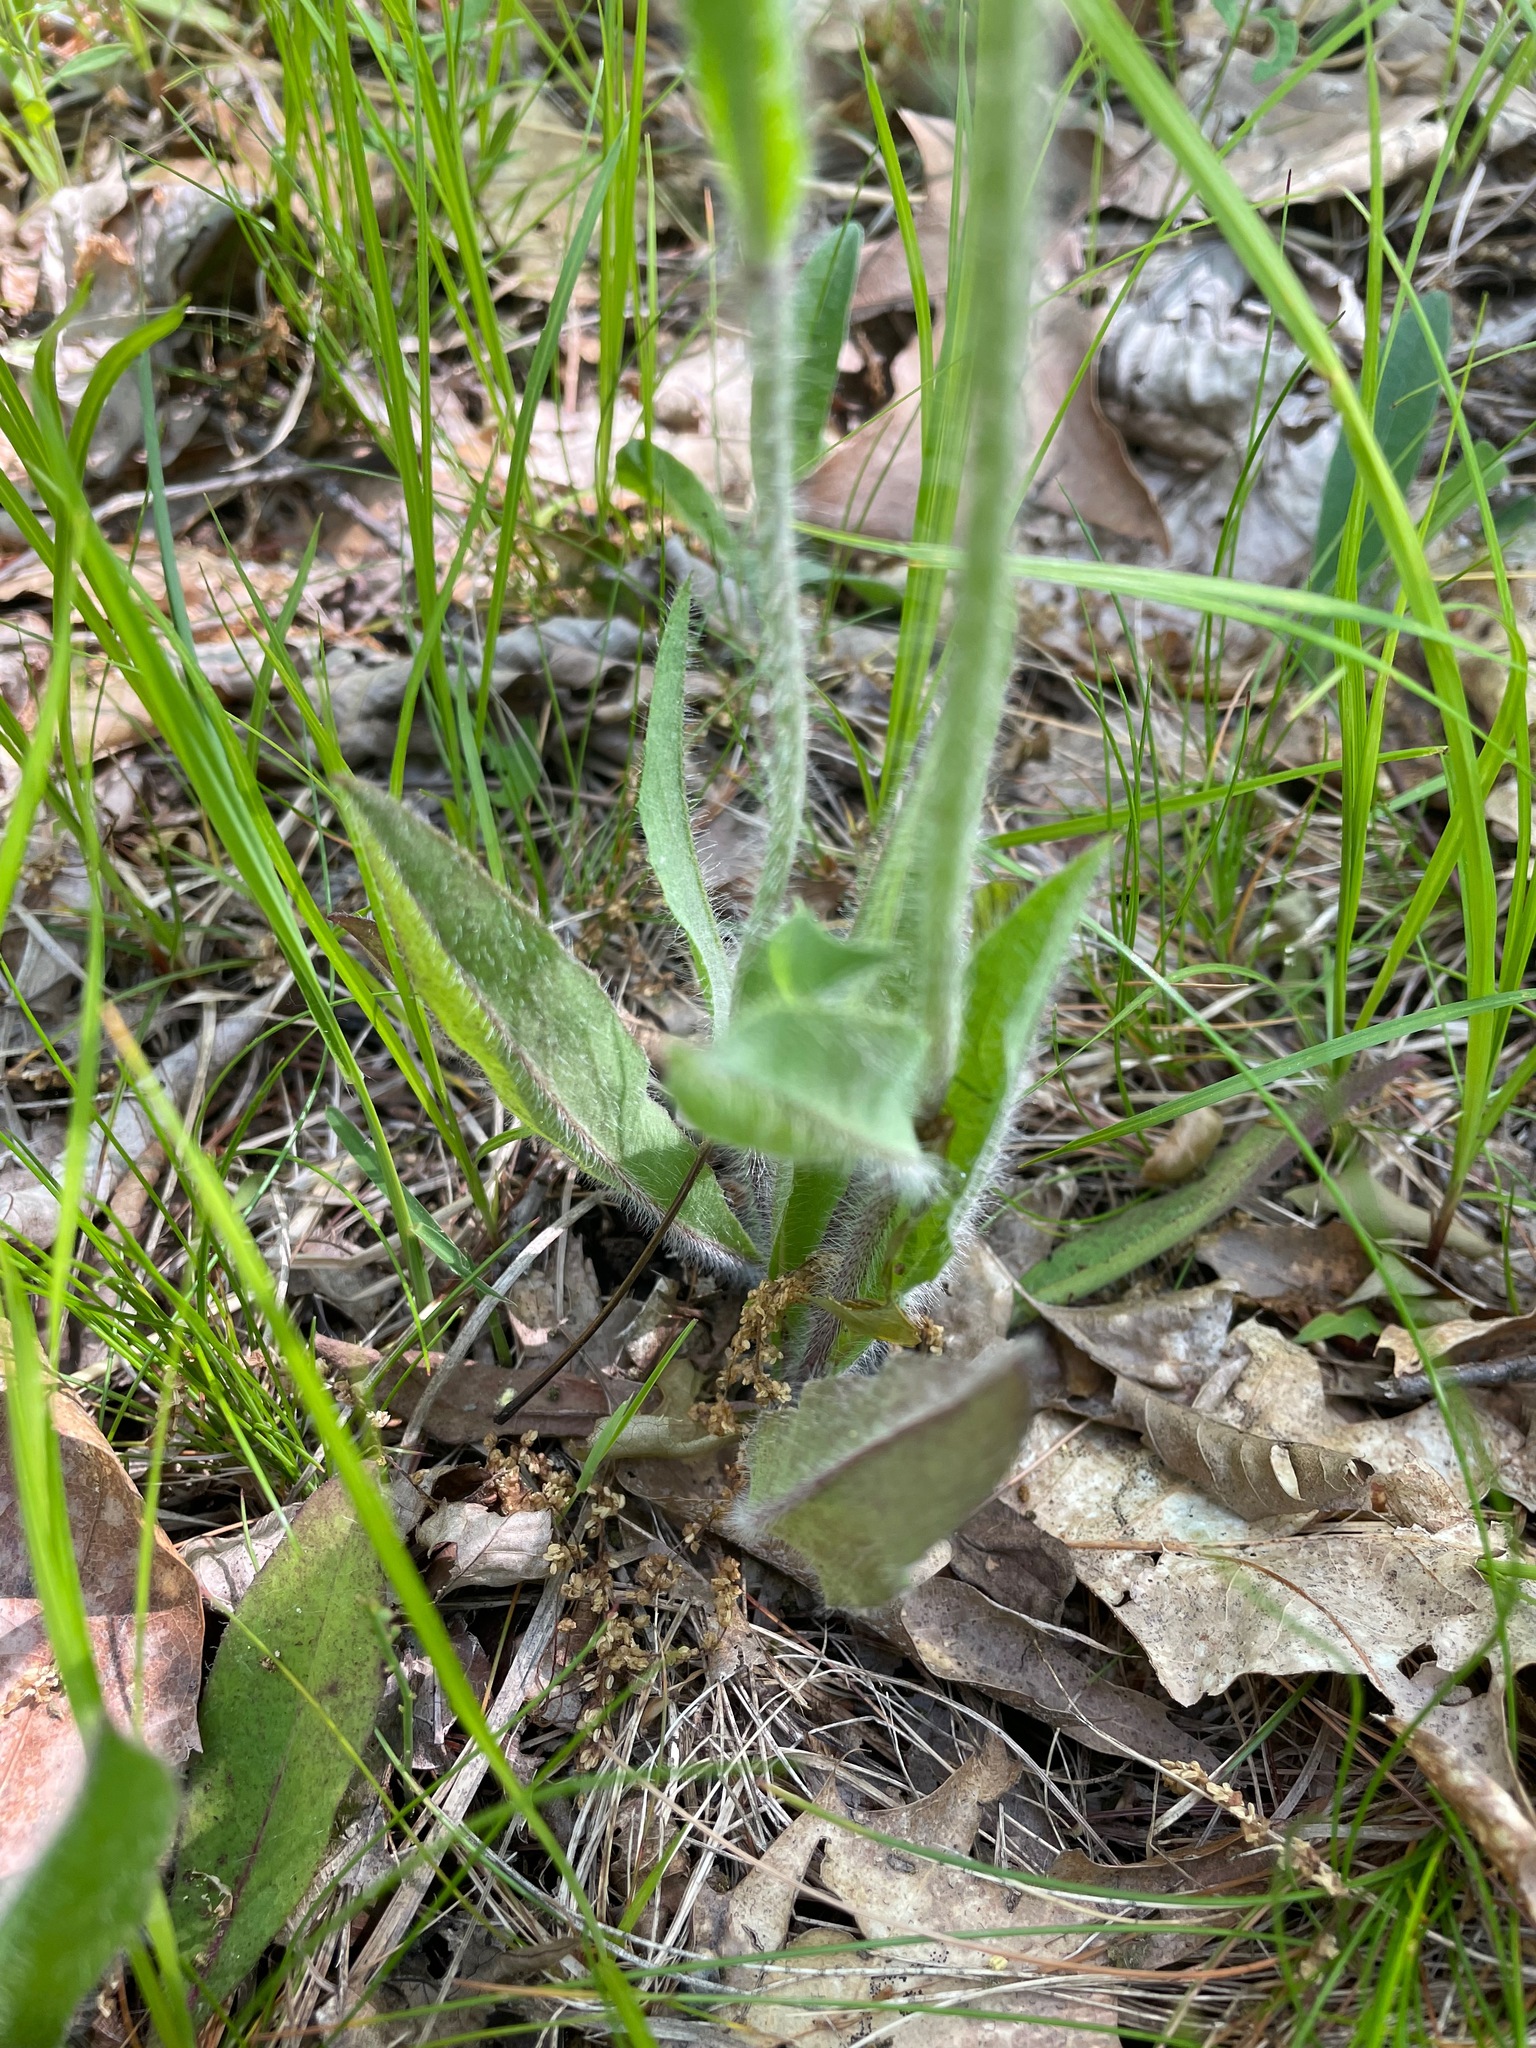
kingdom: Plantae
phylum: Tracheophyta
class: Magnoliopsida
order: Asterales
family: Asteraceae
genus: Pilosella
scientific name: Pilosella caespitosa
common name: Yellow fox-and-cubs
